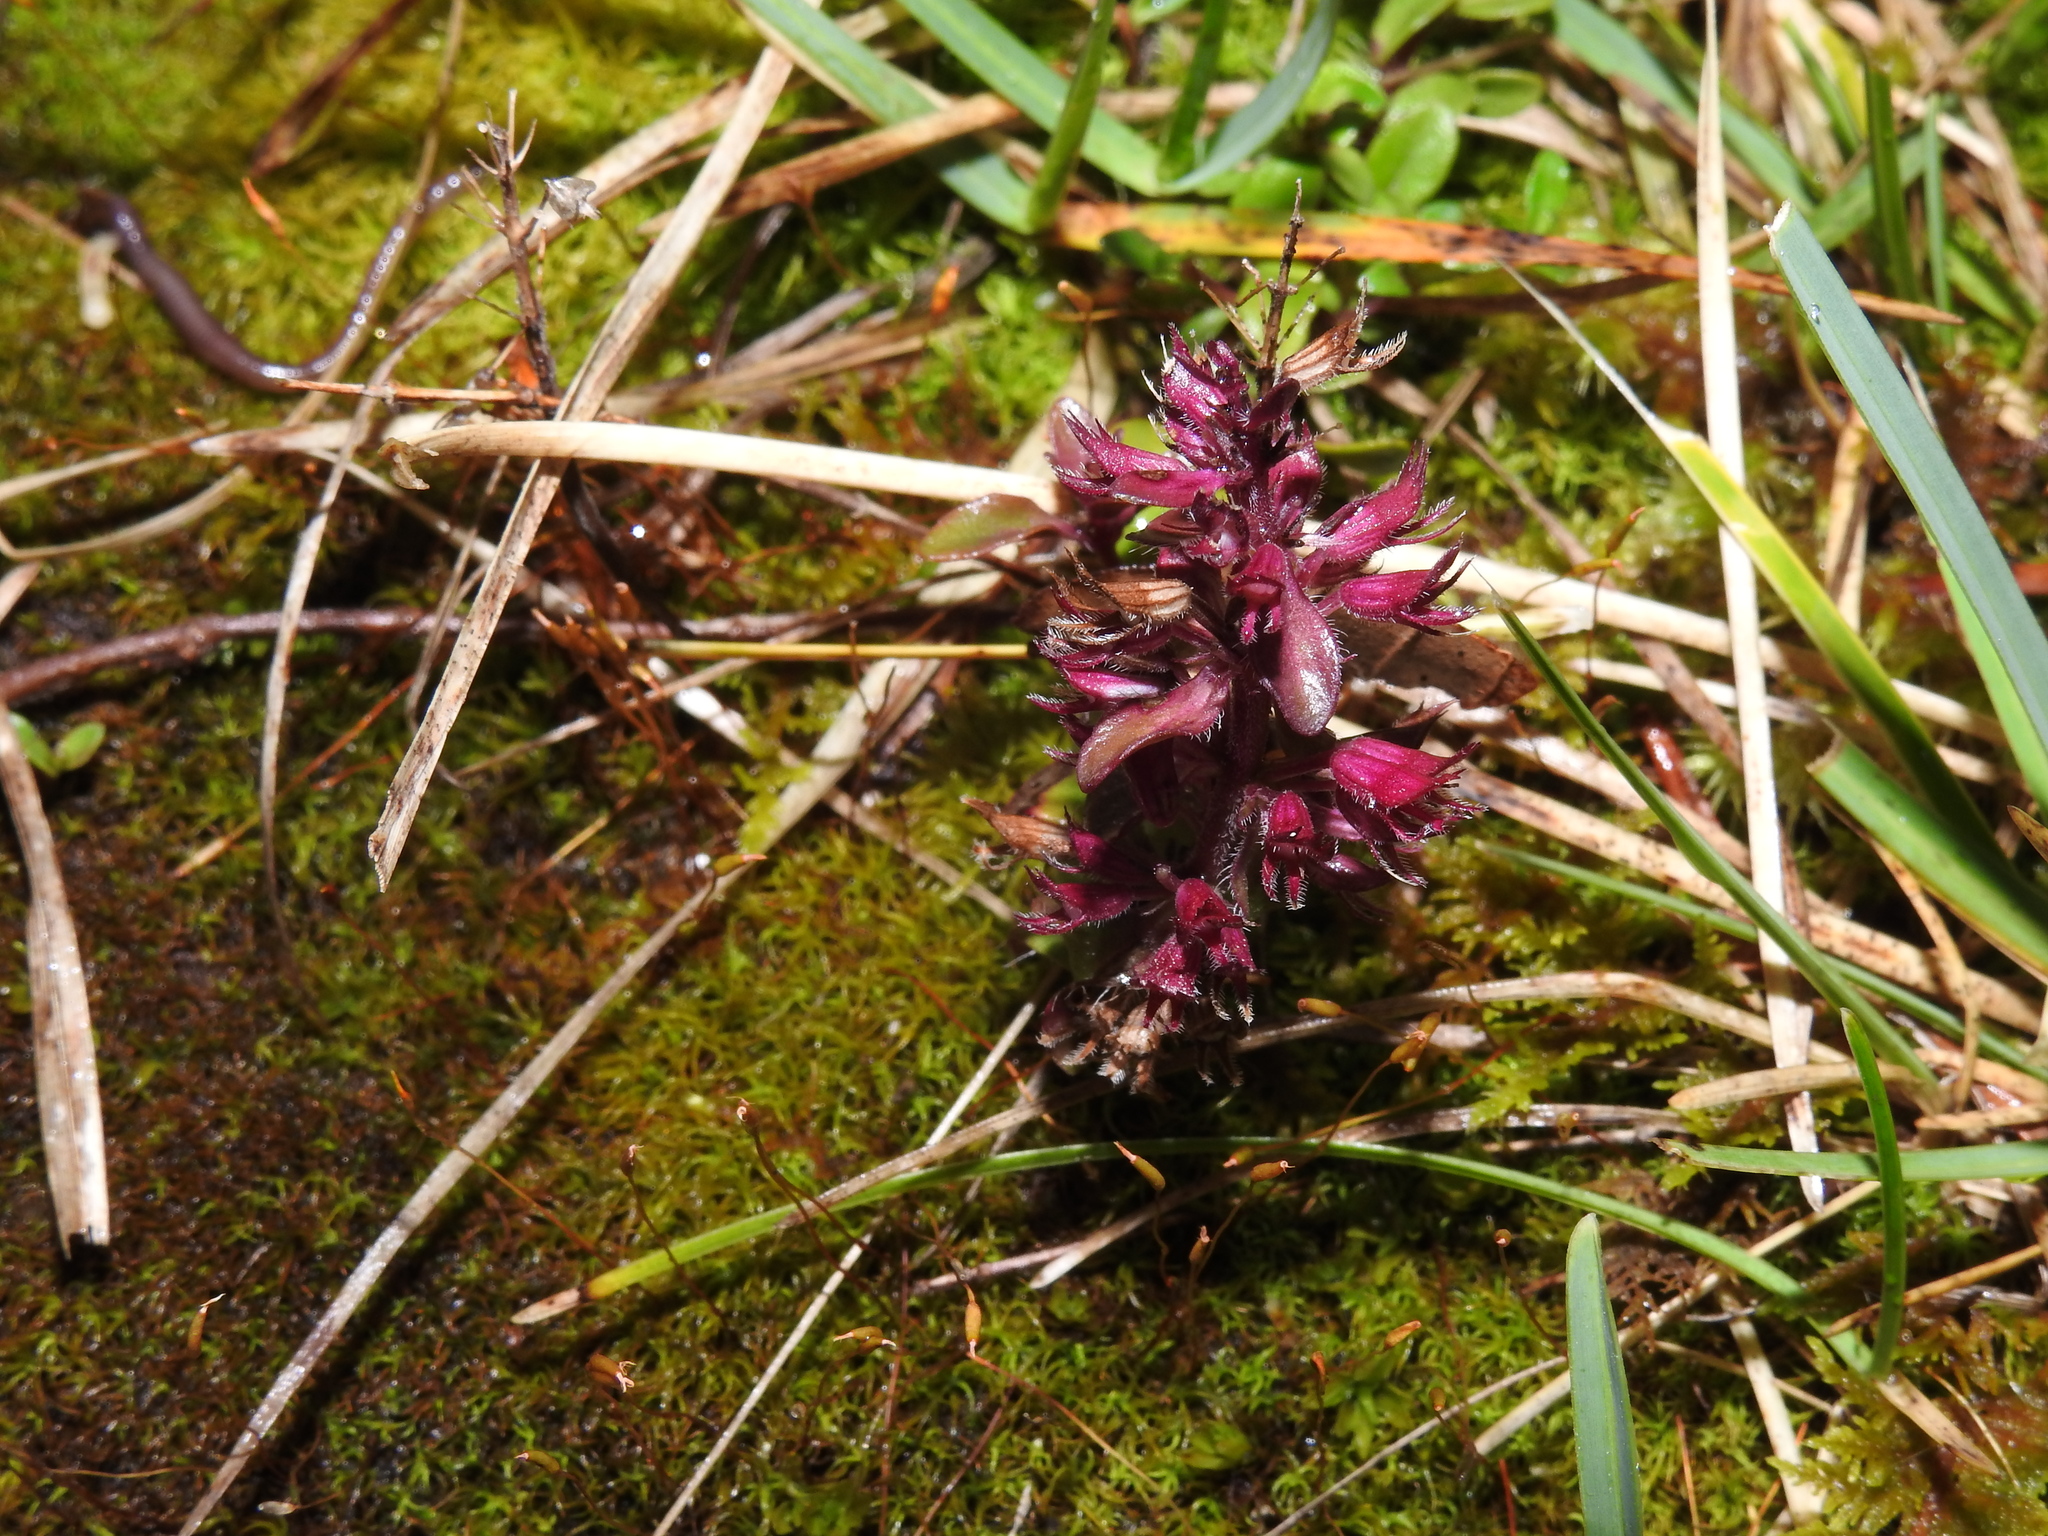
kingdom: Plantae
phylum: Tracheophyta
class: Magnoliopsida
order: Lamiales
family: Lamiaceae
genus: Thymus
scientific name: Thymus pulegioides
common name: Large thyme
